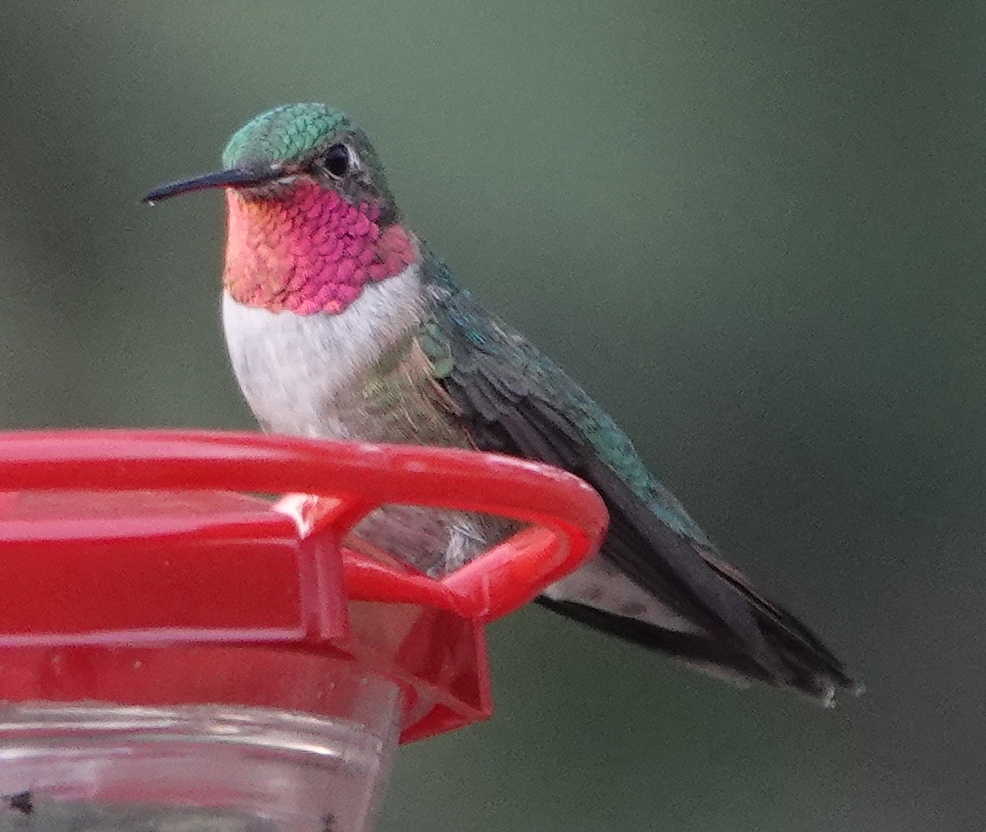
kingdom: Animalia
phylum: Chordata
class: Aves
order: Apodiformes
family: Trochilidae
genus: Selasphorus
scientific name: Selasphorus platycercus
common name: Broad-tailed hummingbird
